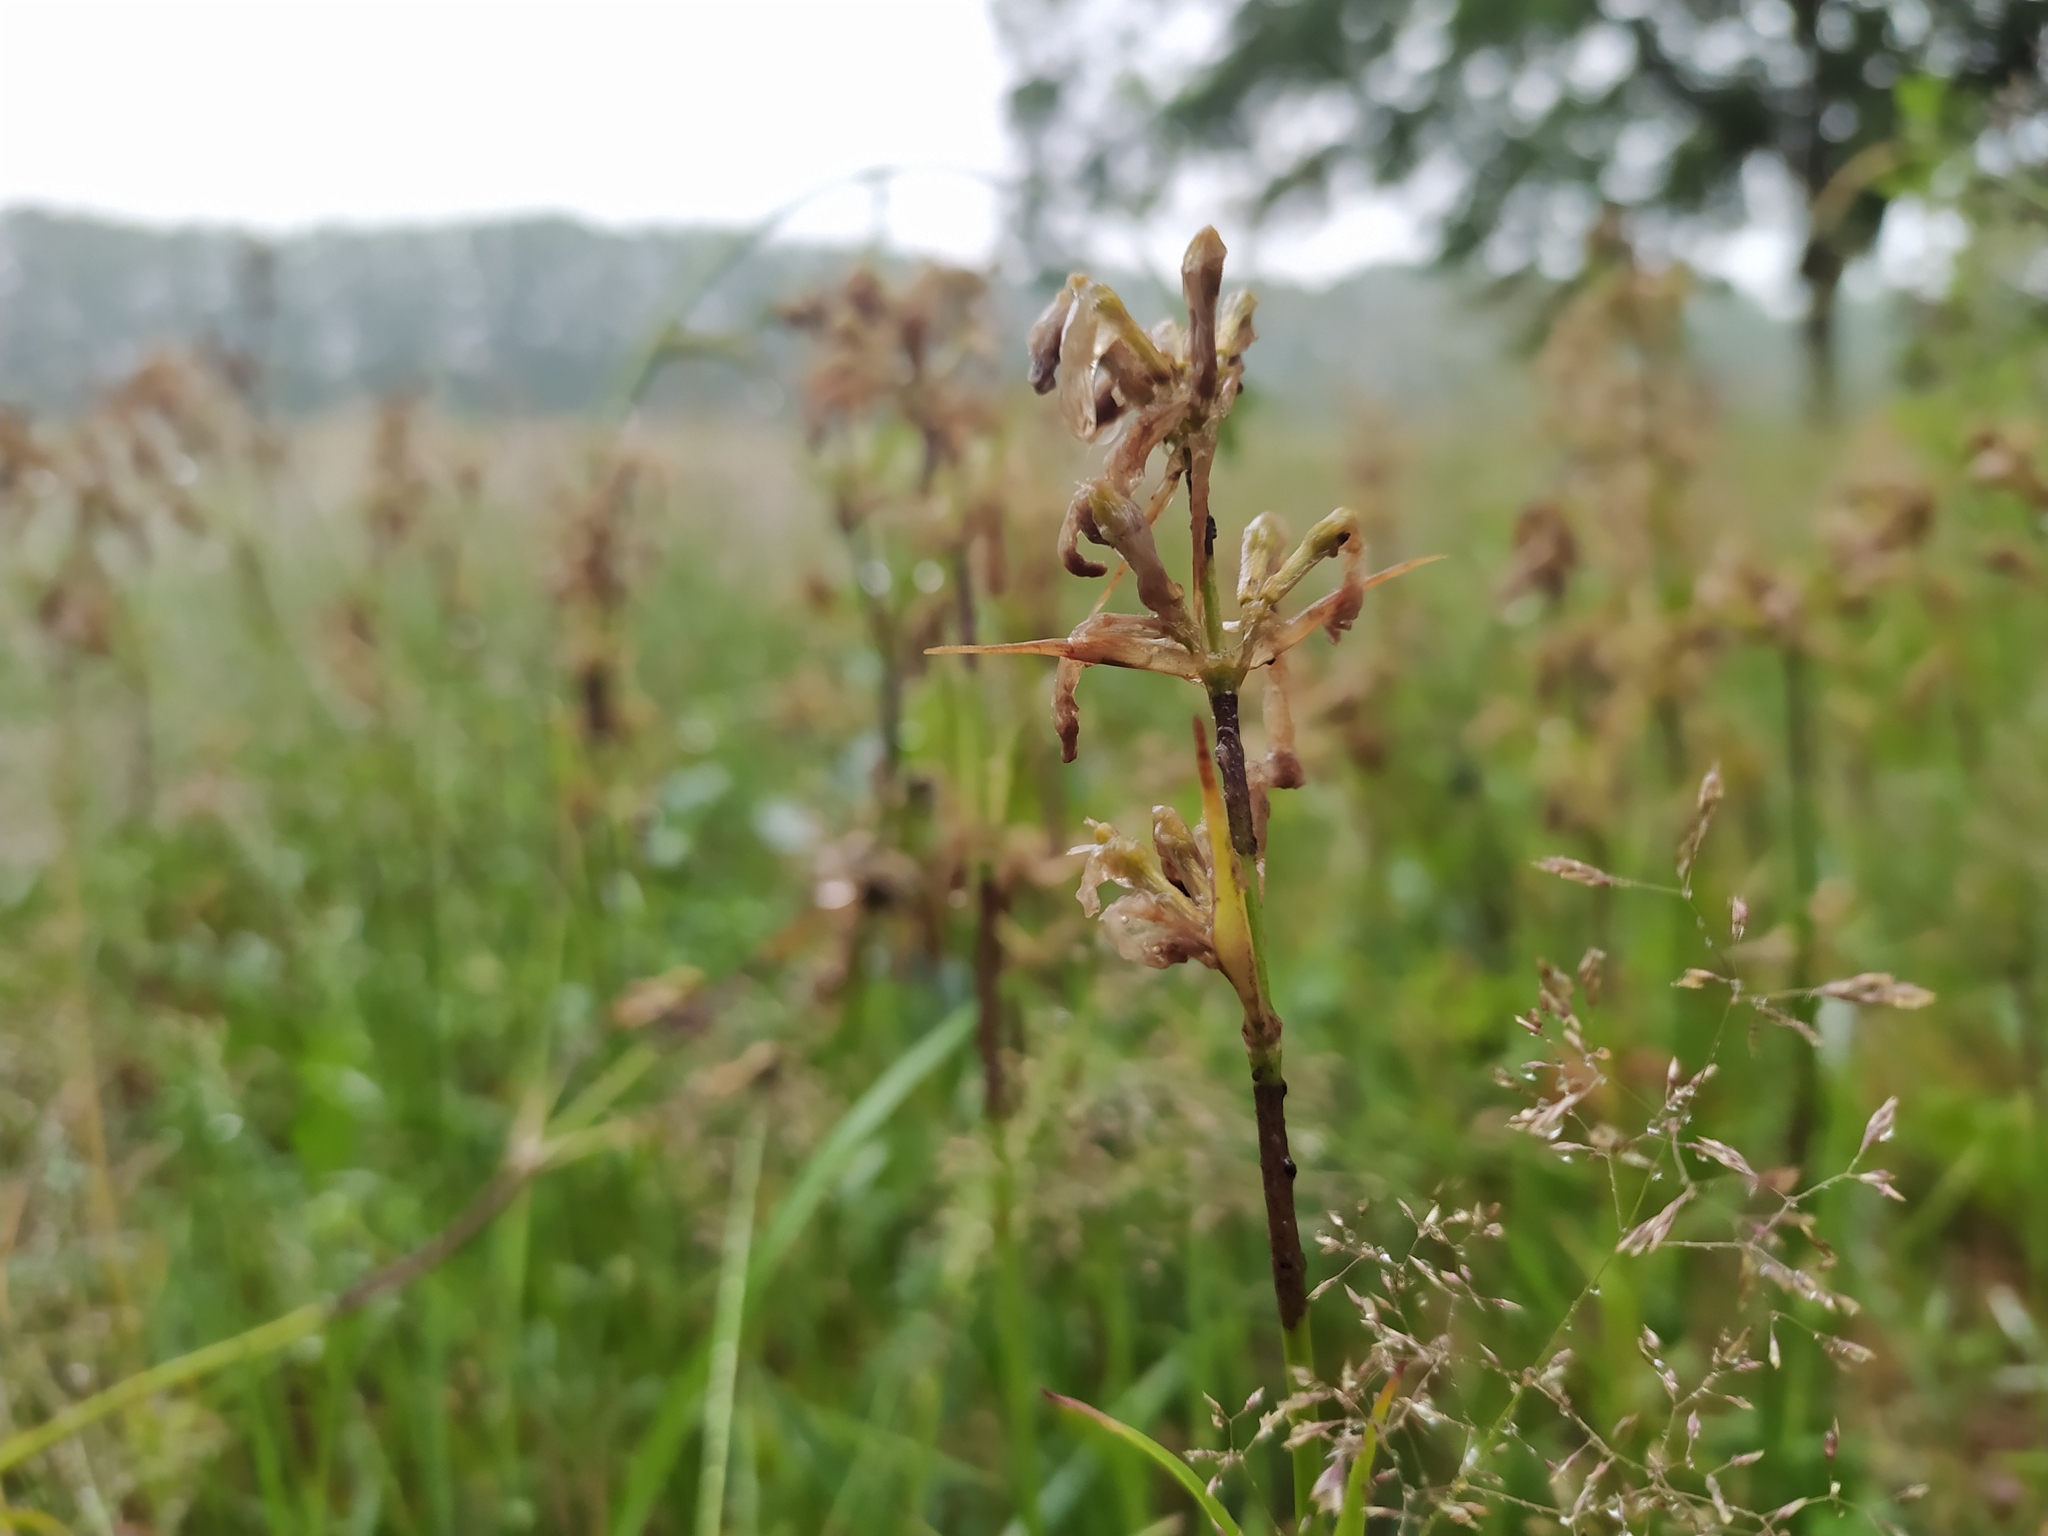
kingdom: Plantae
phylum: Tracheophyta
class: Magnoliopsida
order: Caryophyllales
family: Caryophyllaceae
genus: Viscaria
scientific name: Viscaria vulgaris
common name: Clammy campion
